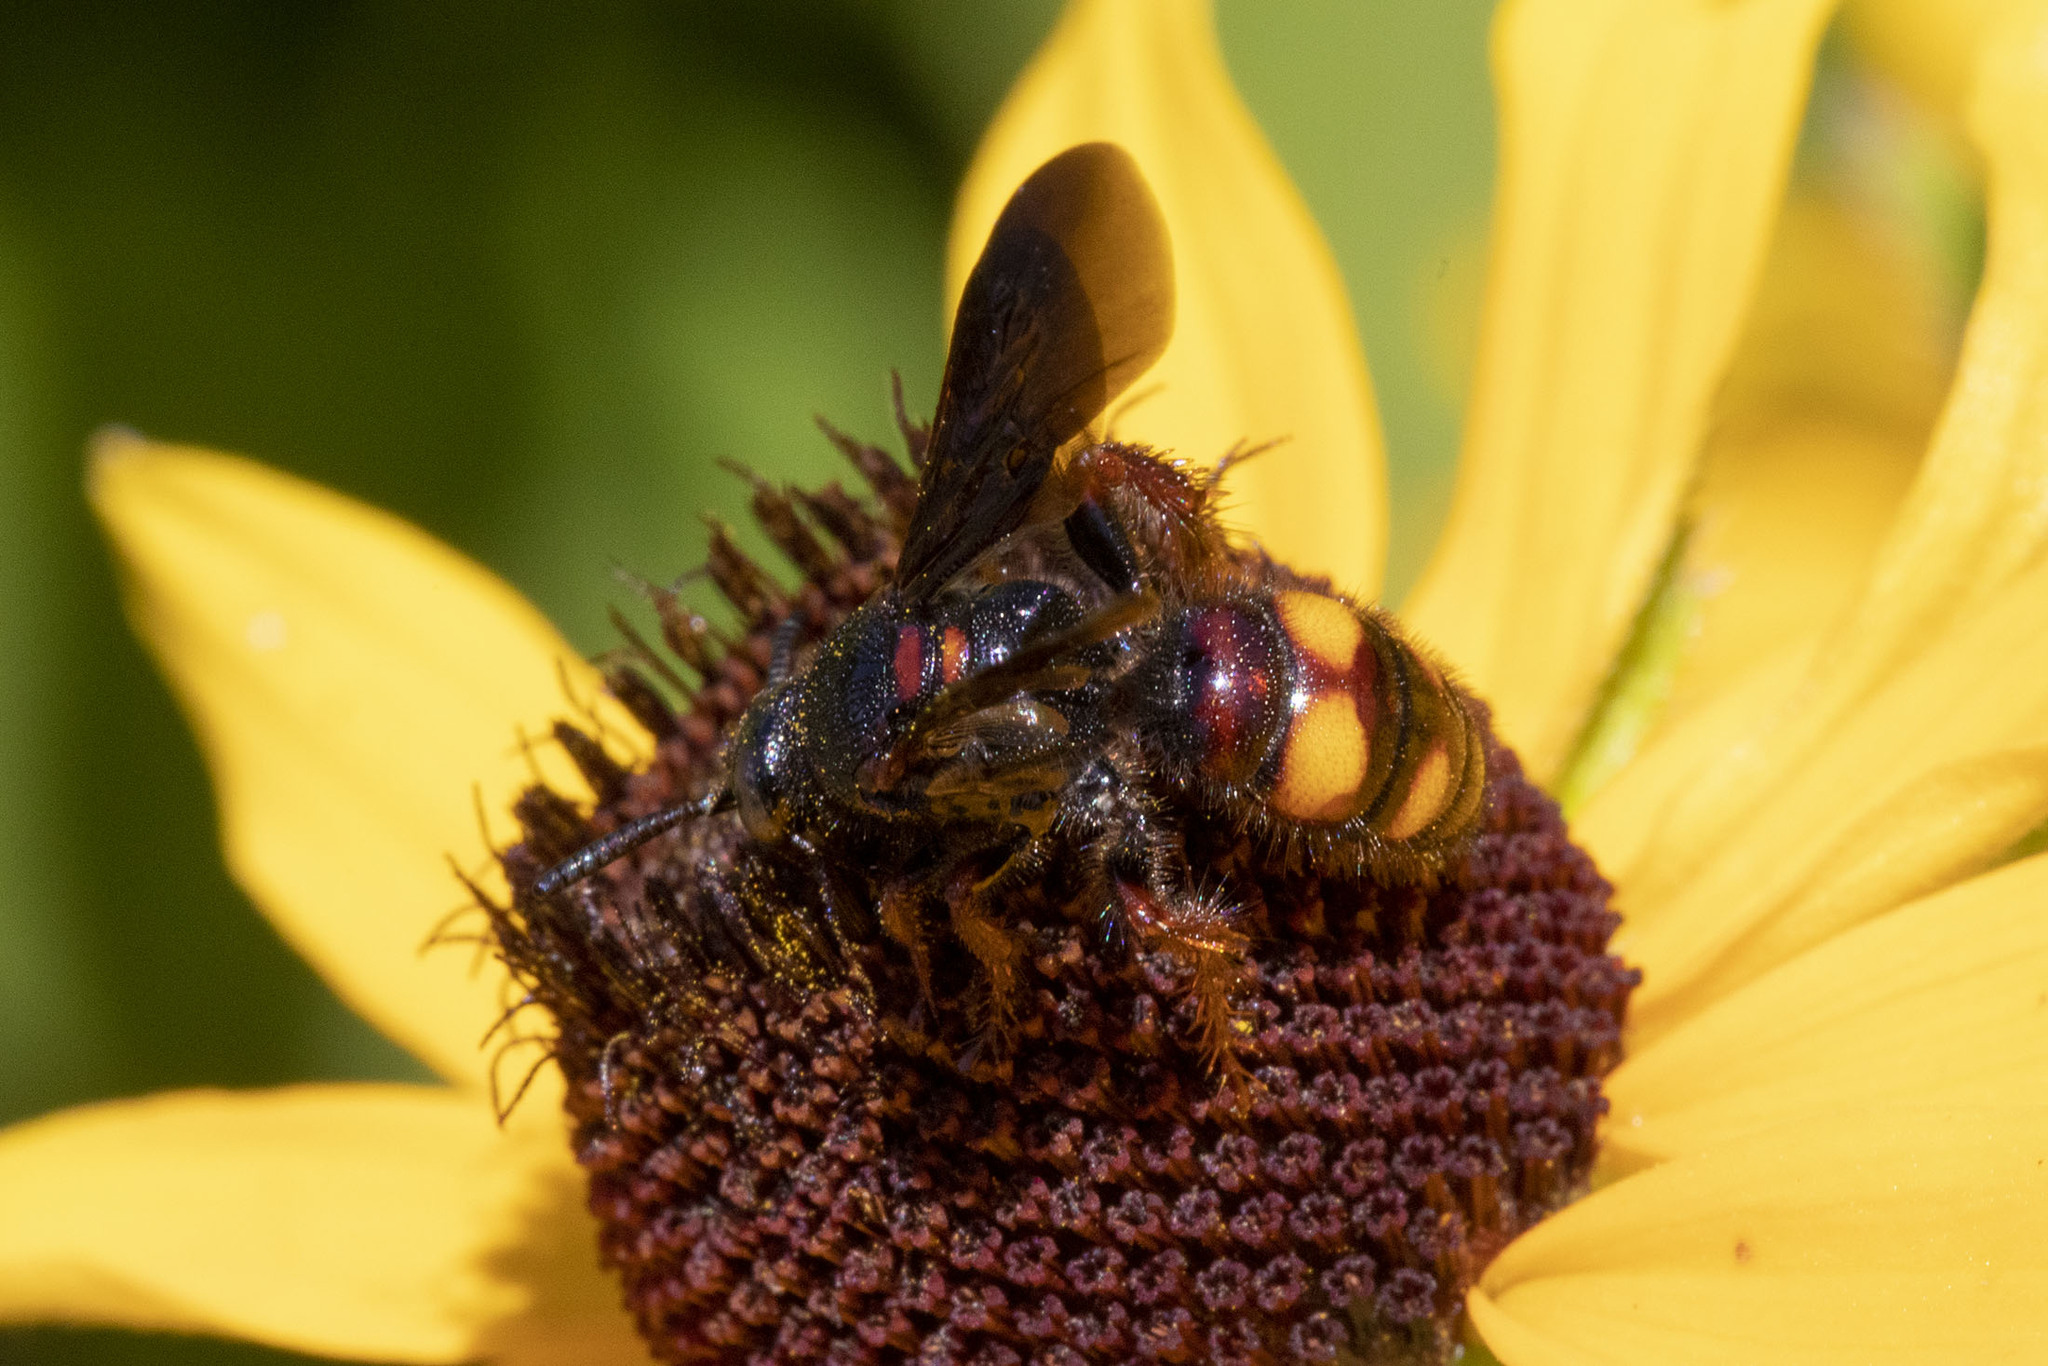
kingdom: Animalia
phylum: Arthropoda
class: Insecta
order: Hymenoptera
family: Scoliidae
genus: Scolia
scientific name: Scolia nobilitata
